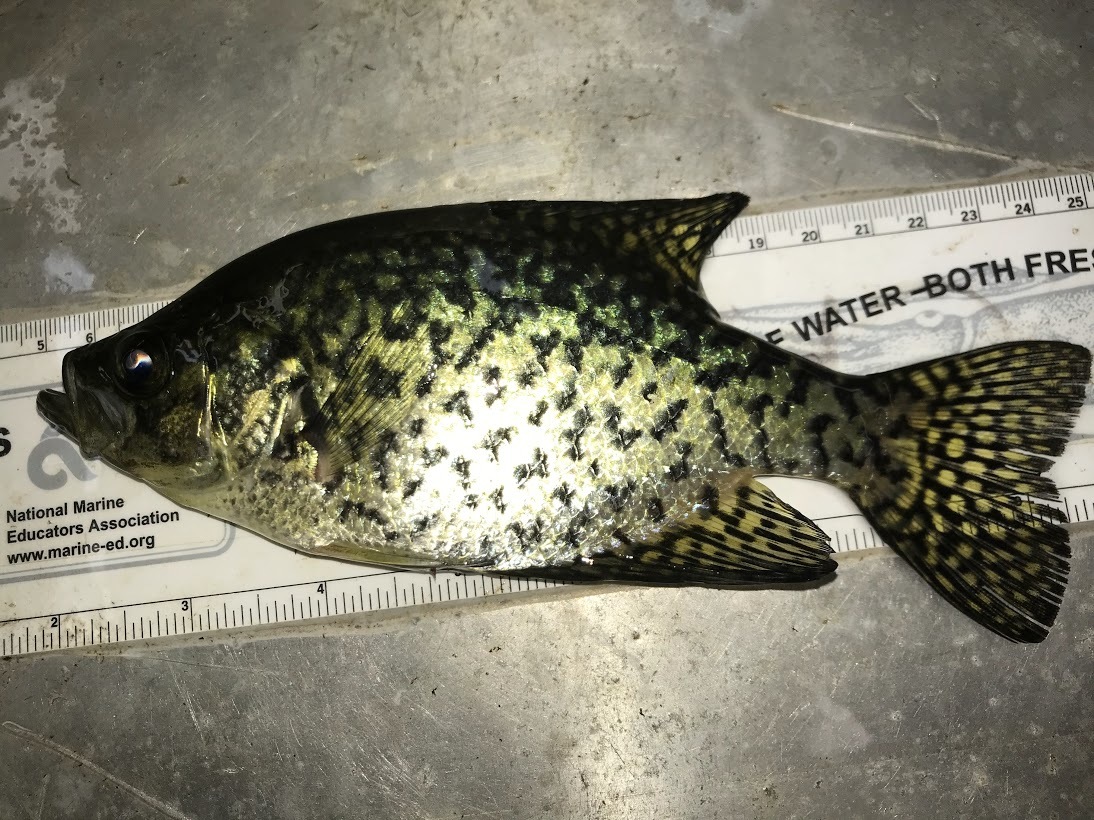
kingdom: Animalia
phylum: Chordata
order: Perciformes
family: Centrarchidae
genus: Pomoxis
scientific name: Pomoxis nigromaculatus
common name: Black crappie
